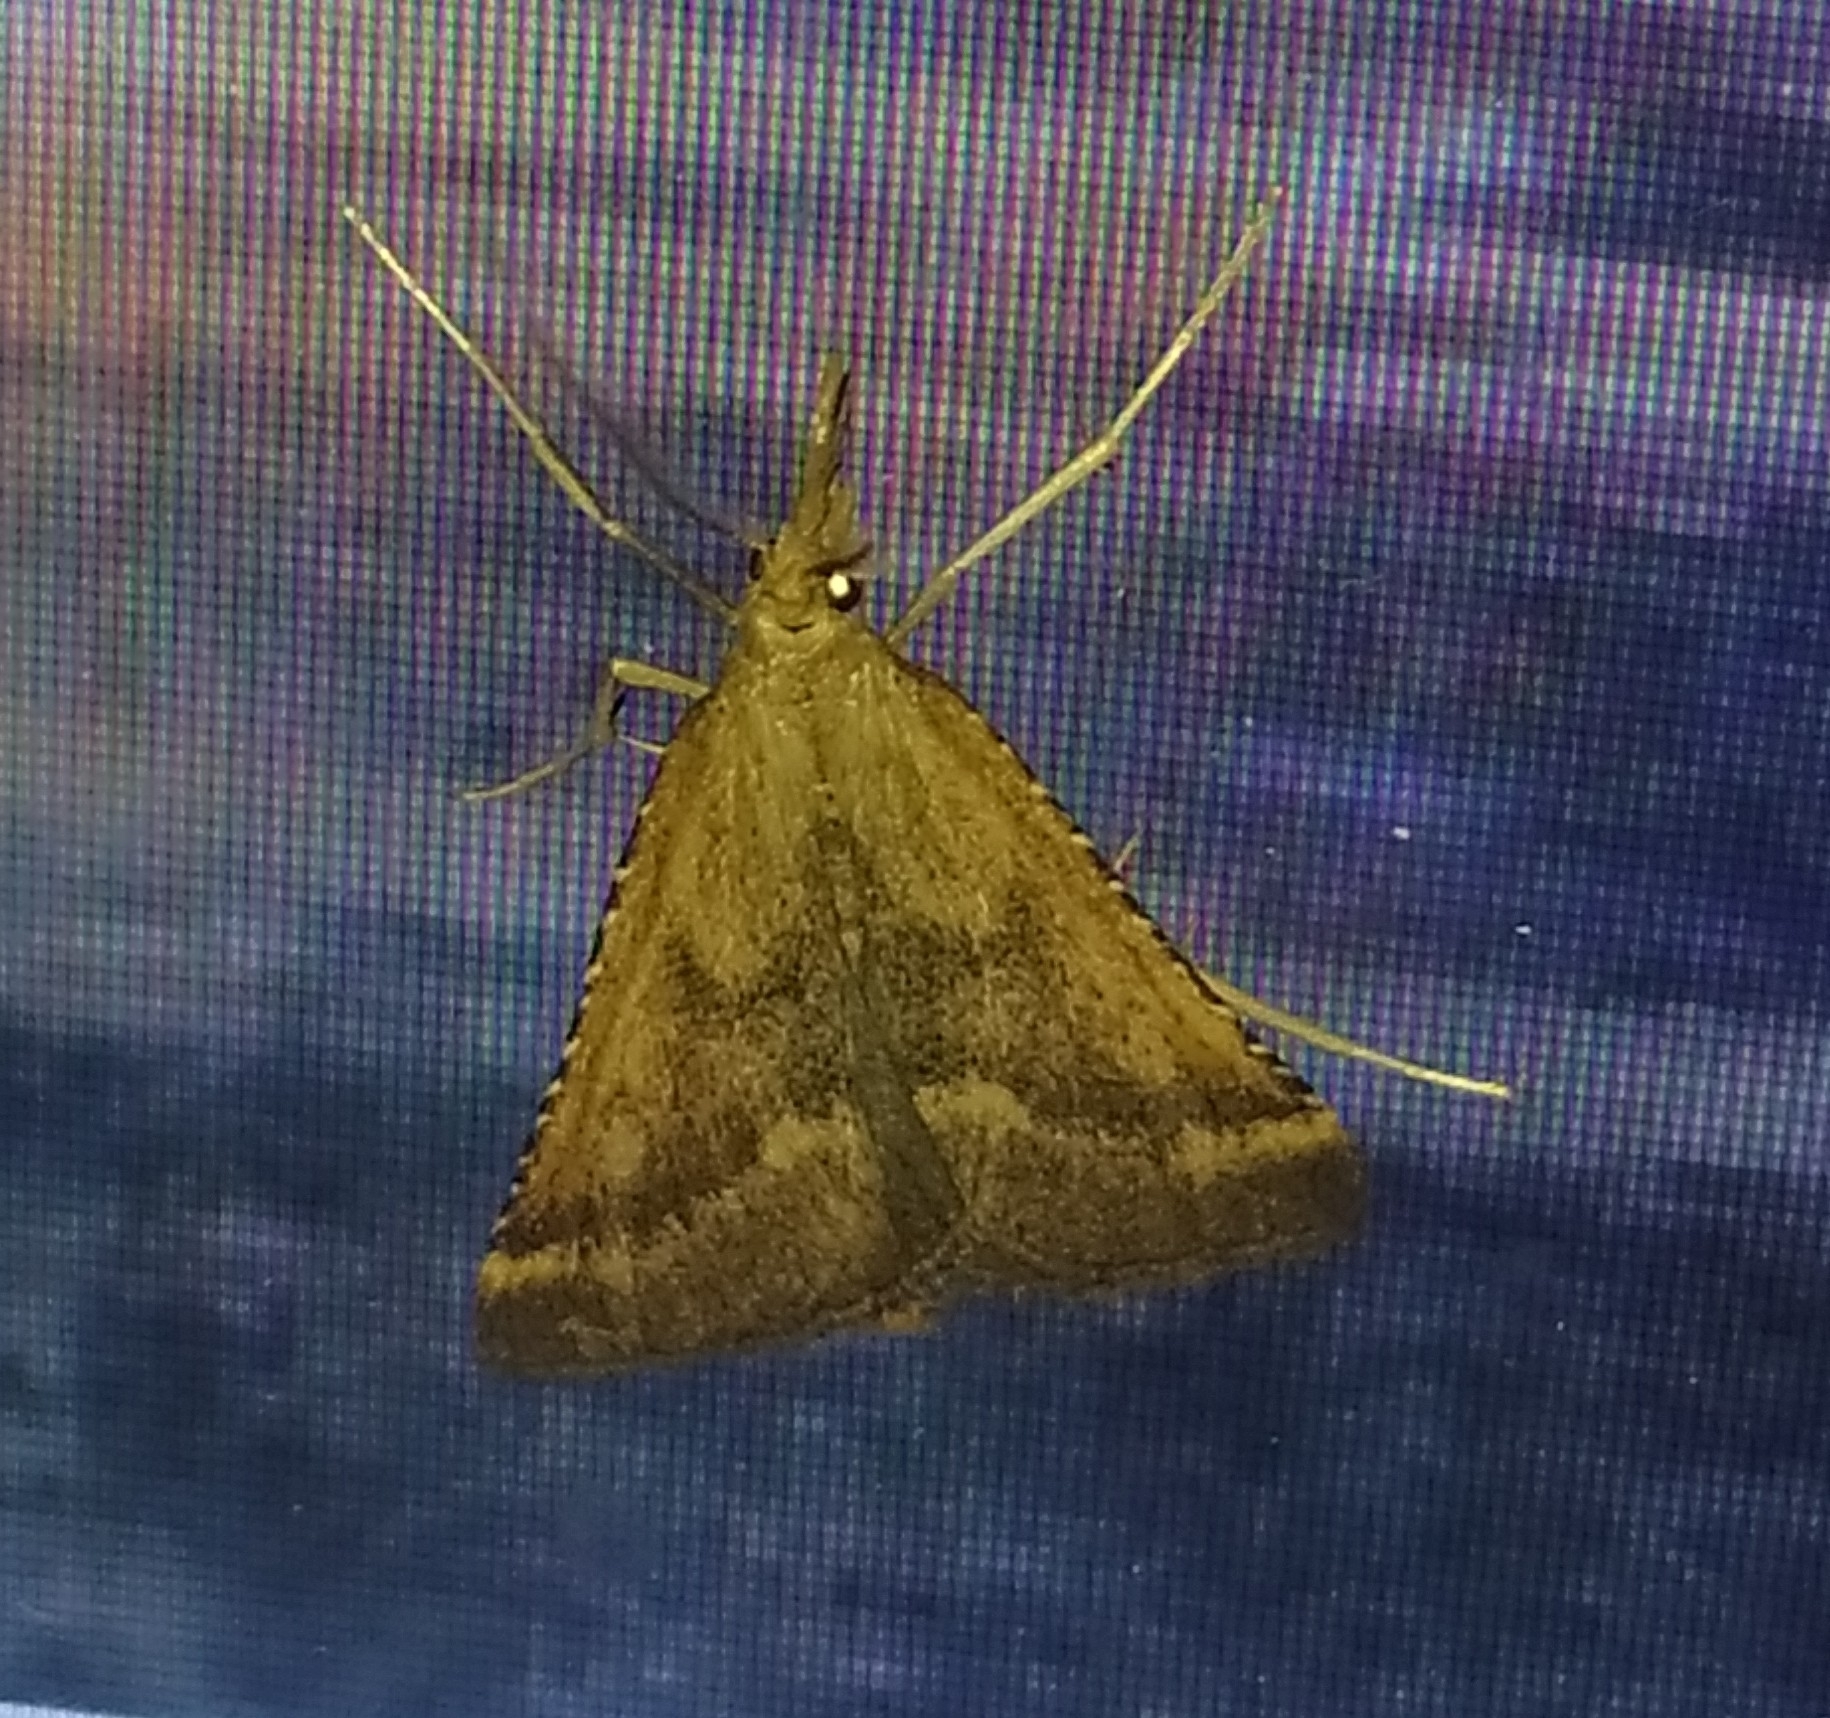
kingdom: Animalia
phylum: Arthropoda
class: Insecta
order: Lepidoptera
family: Pyralidae
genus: Synaphe
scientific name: Synaphe punctalis
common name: Long-legged tabby
